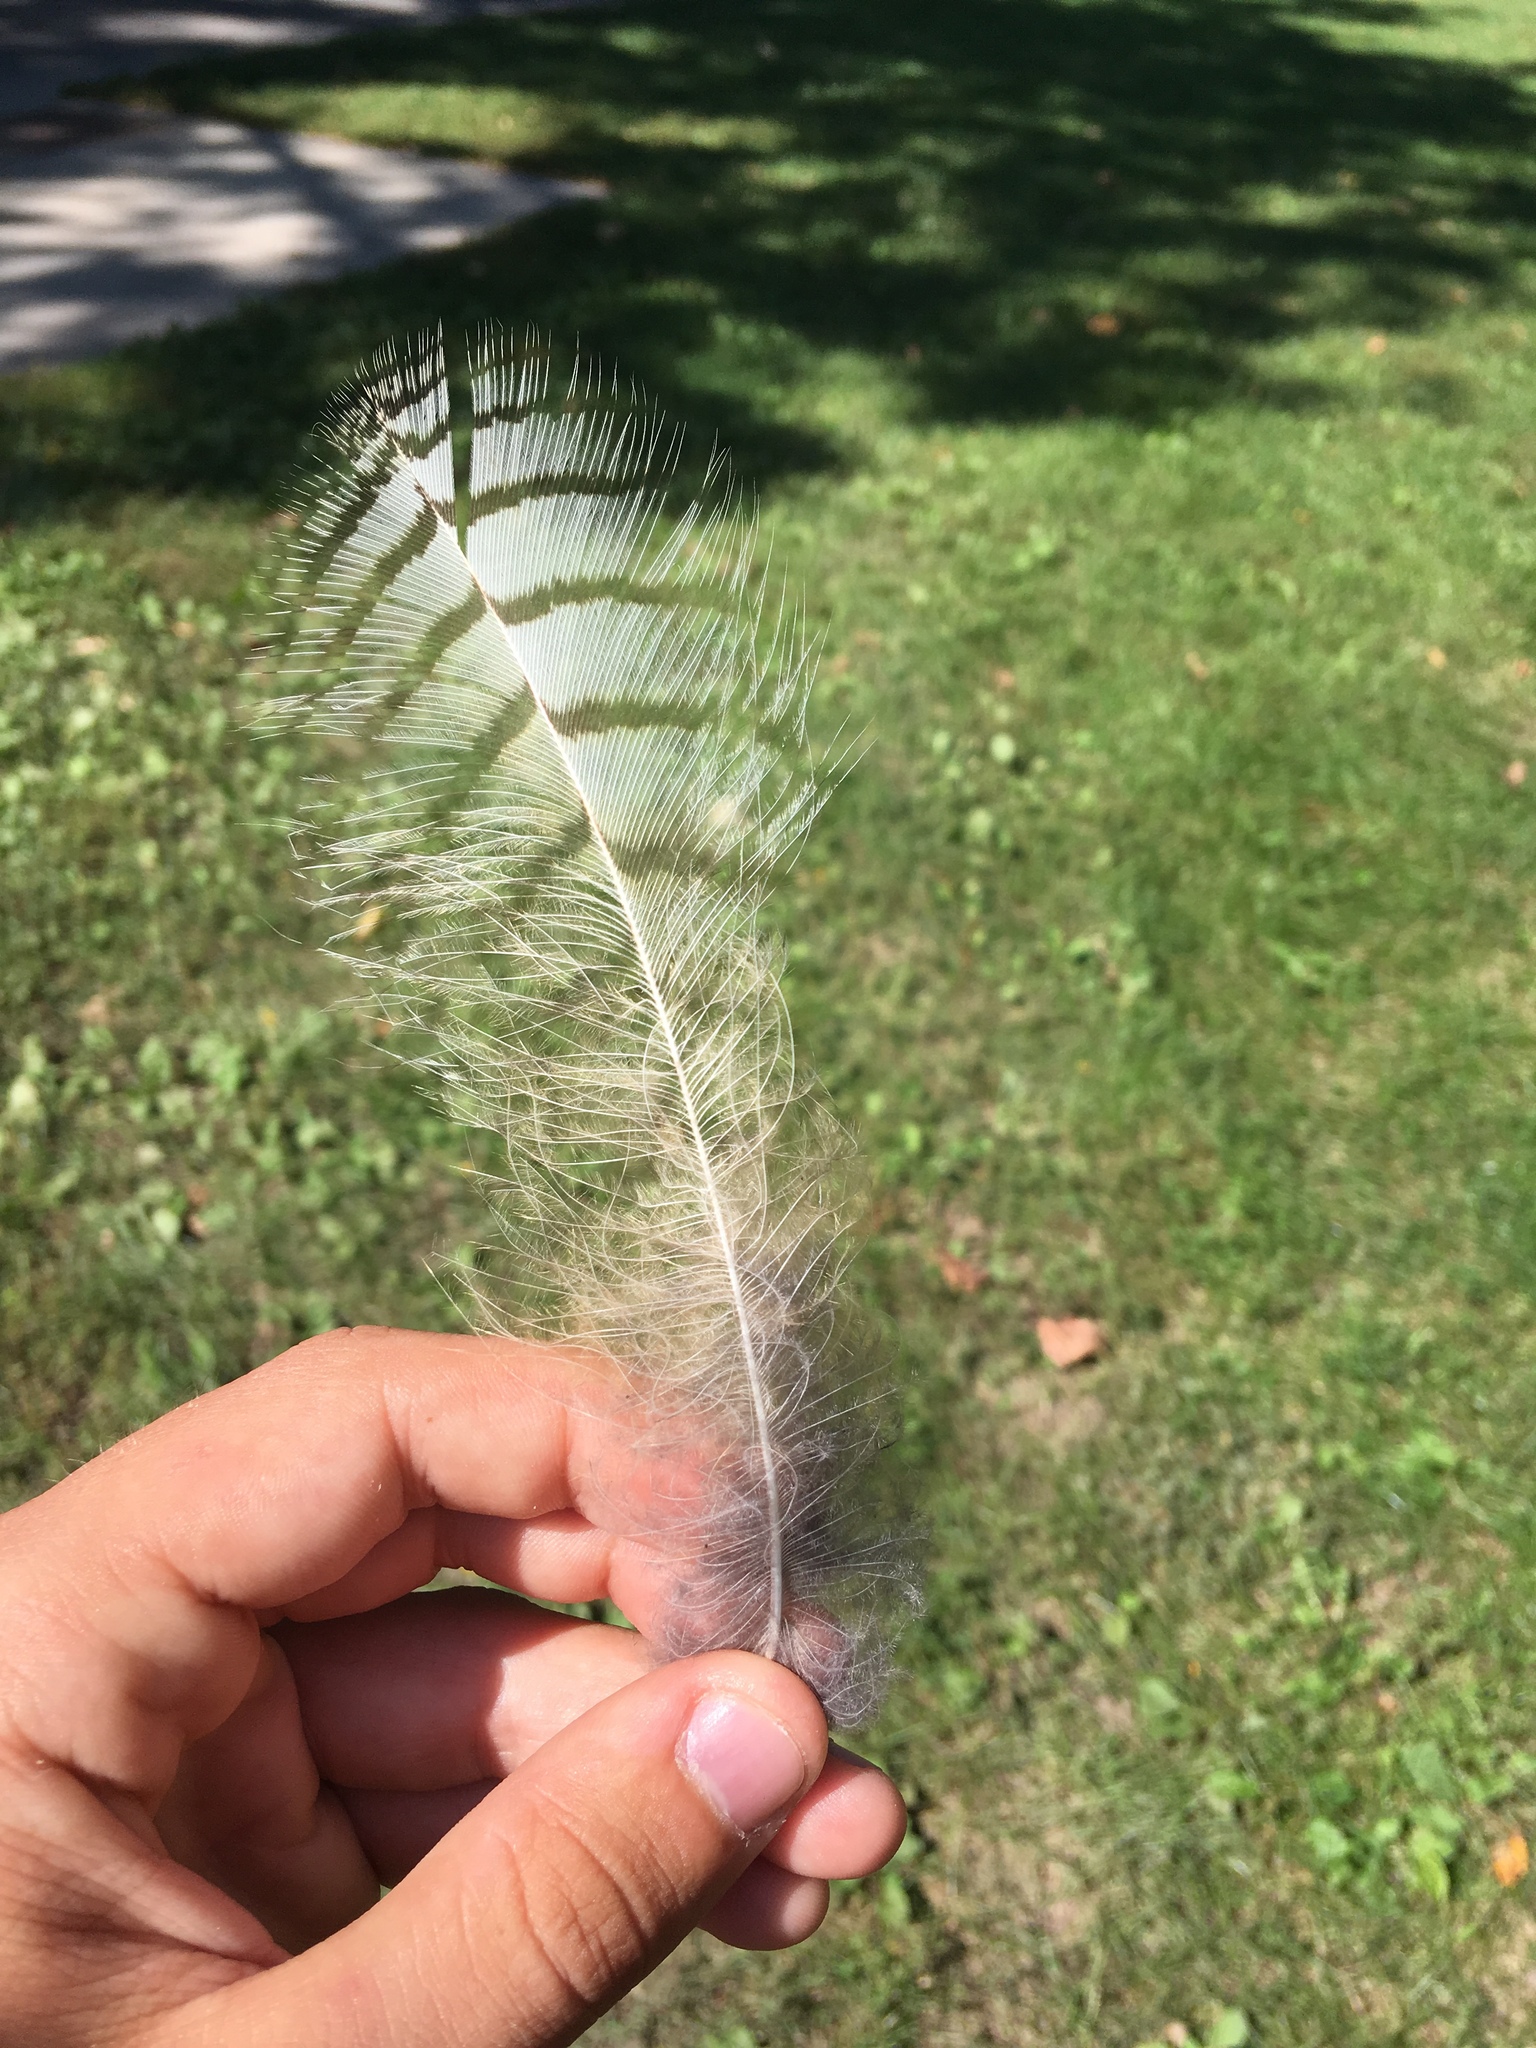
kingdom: Animalia
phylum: Chordata
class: Aves
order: Strigiformes
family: Strigidae
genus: Bubo
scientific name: Bubo virginianus
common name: Great horned owl
